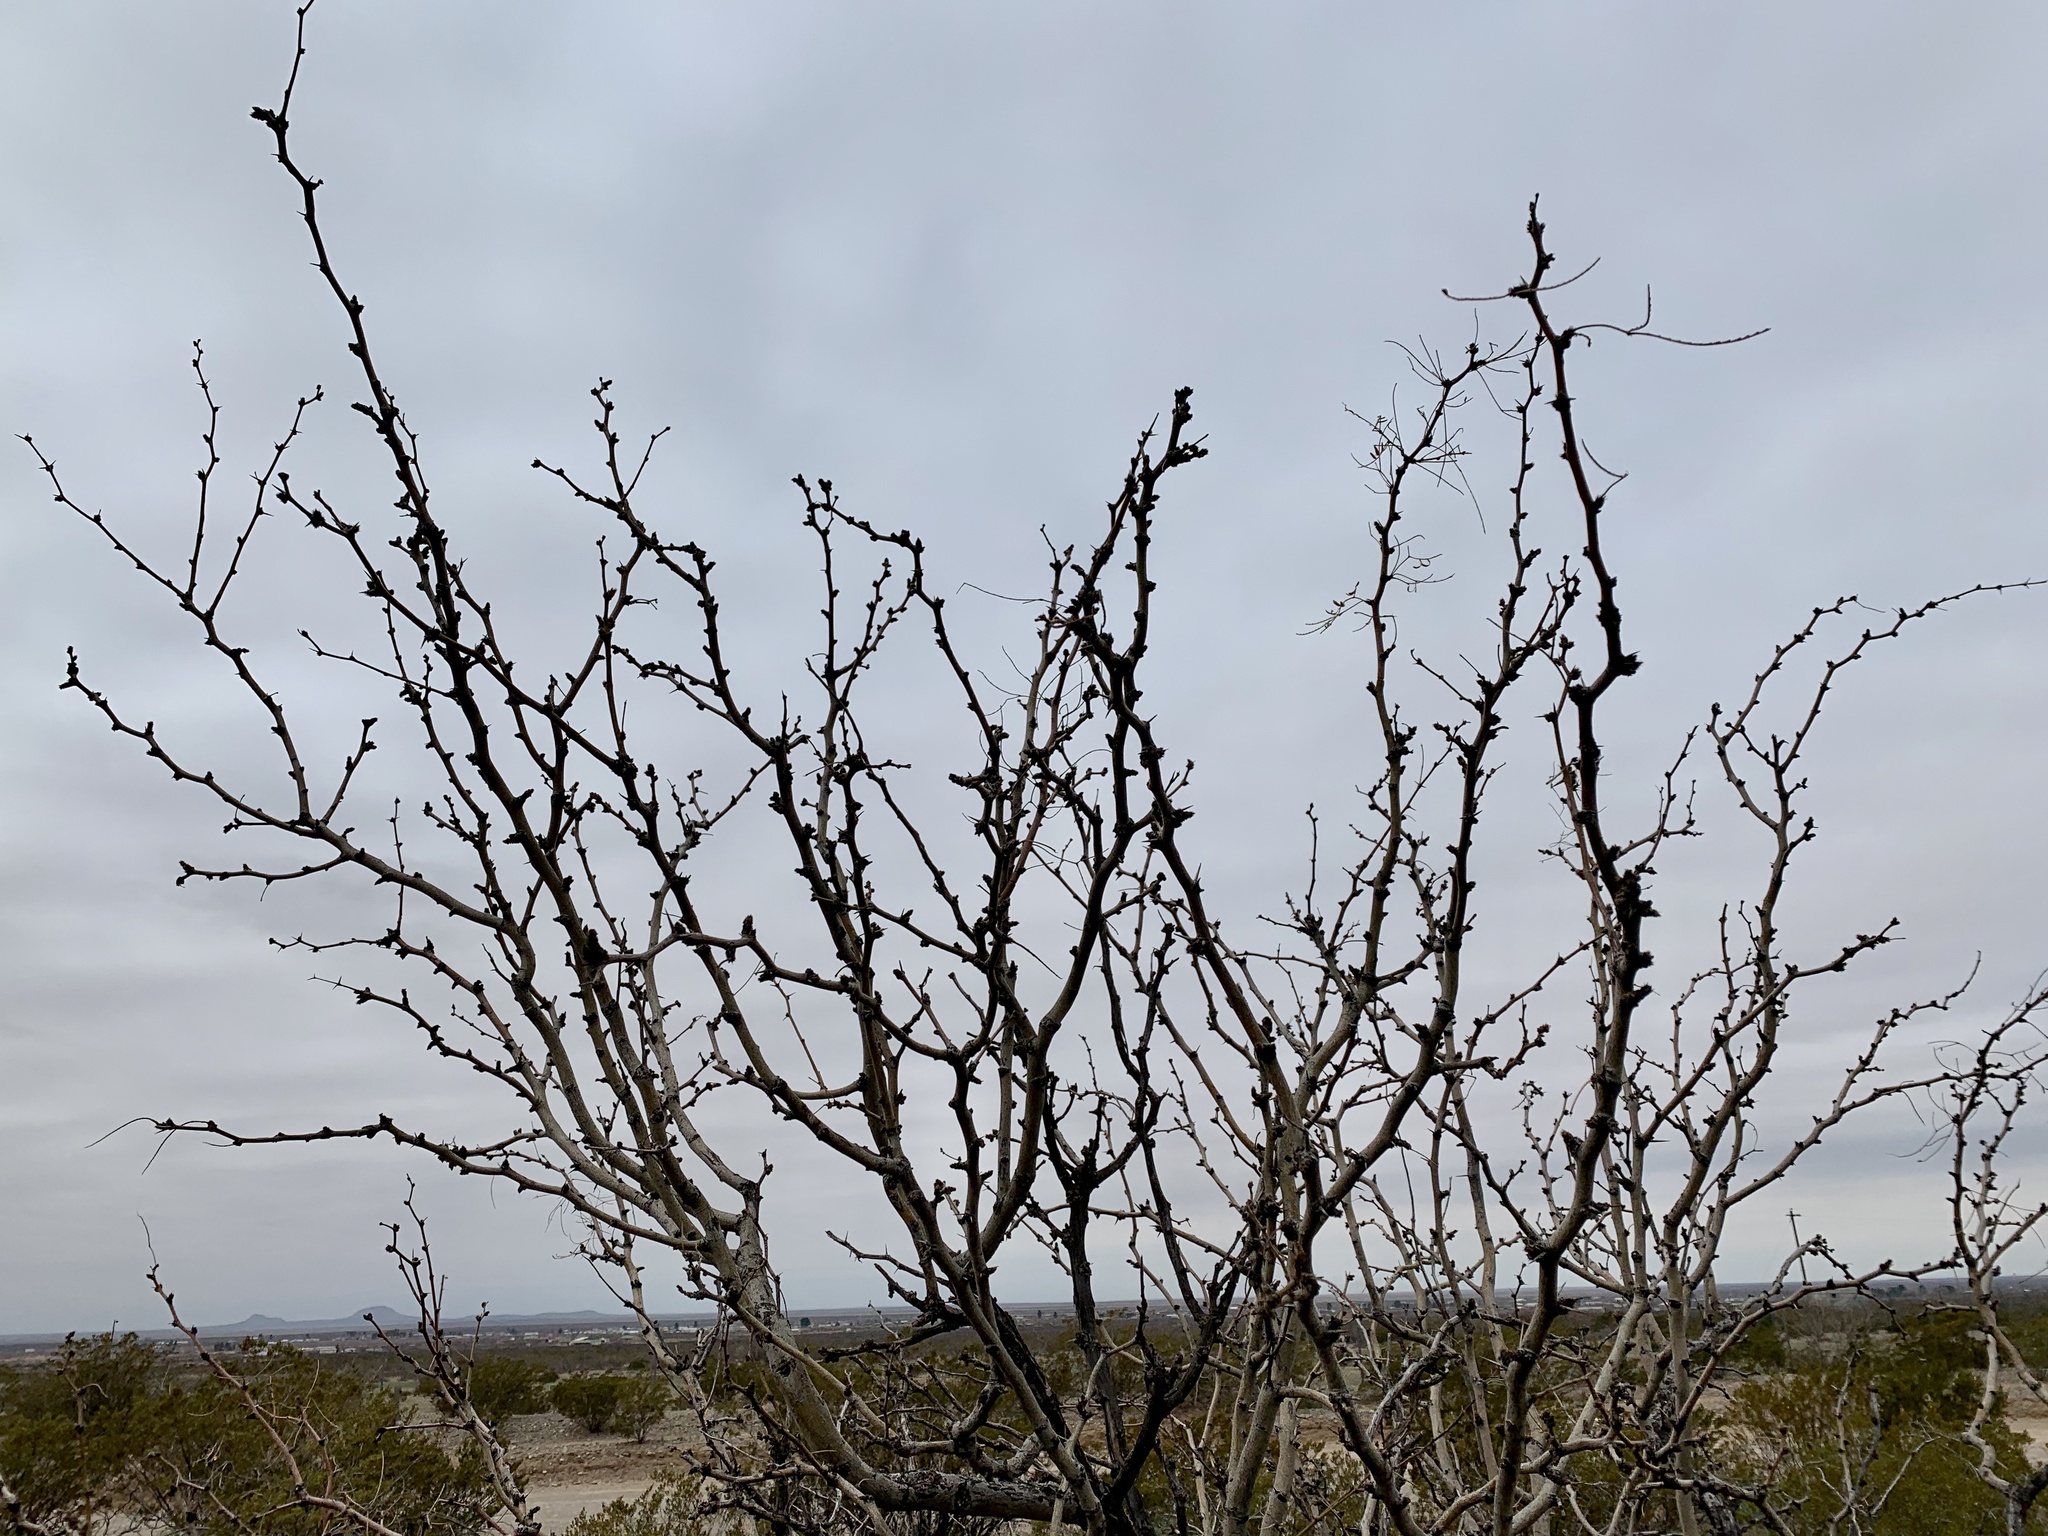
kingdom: Plantae
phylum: Tracheophyta
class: Magnoliopsida
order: Fabales
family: Fabaceae
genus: Prosopis
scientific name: Prosopis glandulosa
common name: Honey mesquite
